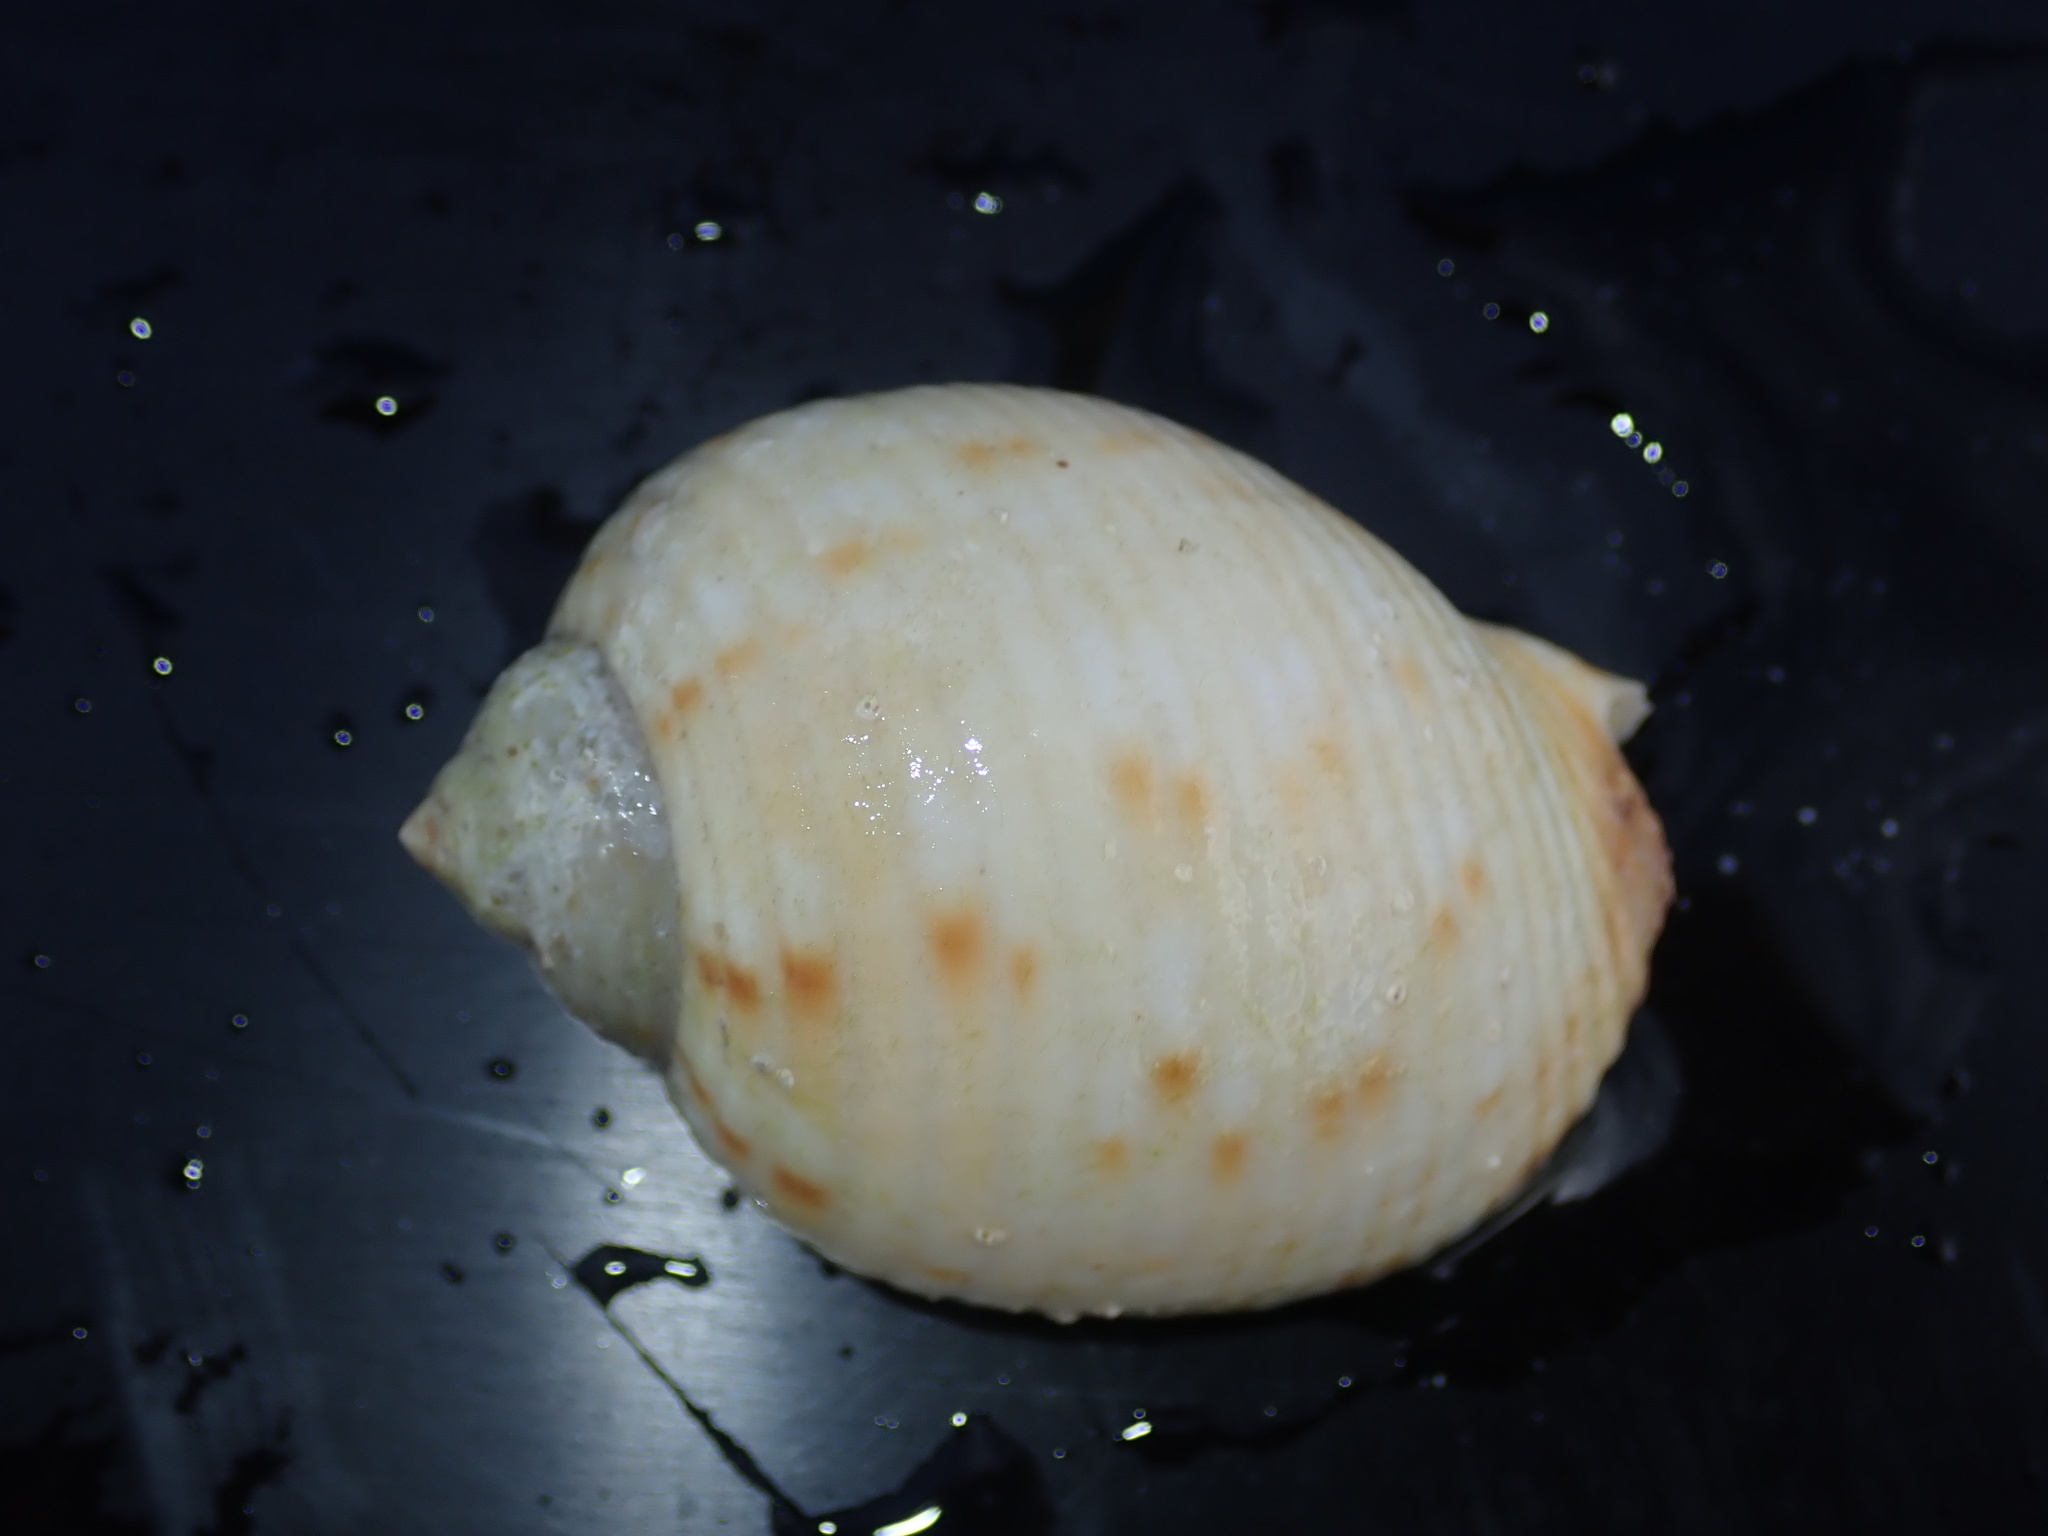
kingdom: Animalia
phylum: Mollusca
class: Gastropoda
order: Littorinimorpha
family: Tonnidae
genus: Tonna
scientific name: Tonna chinensis
